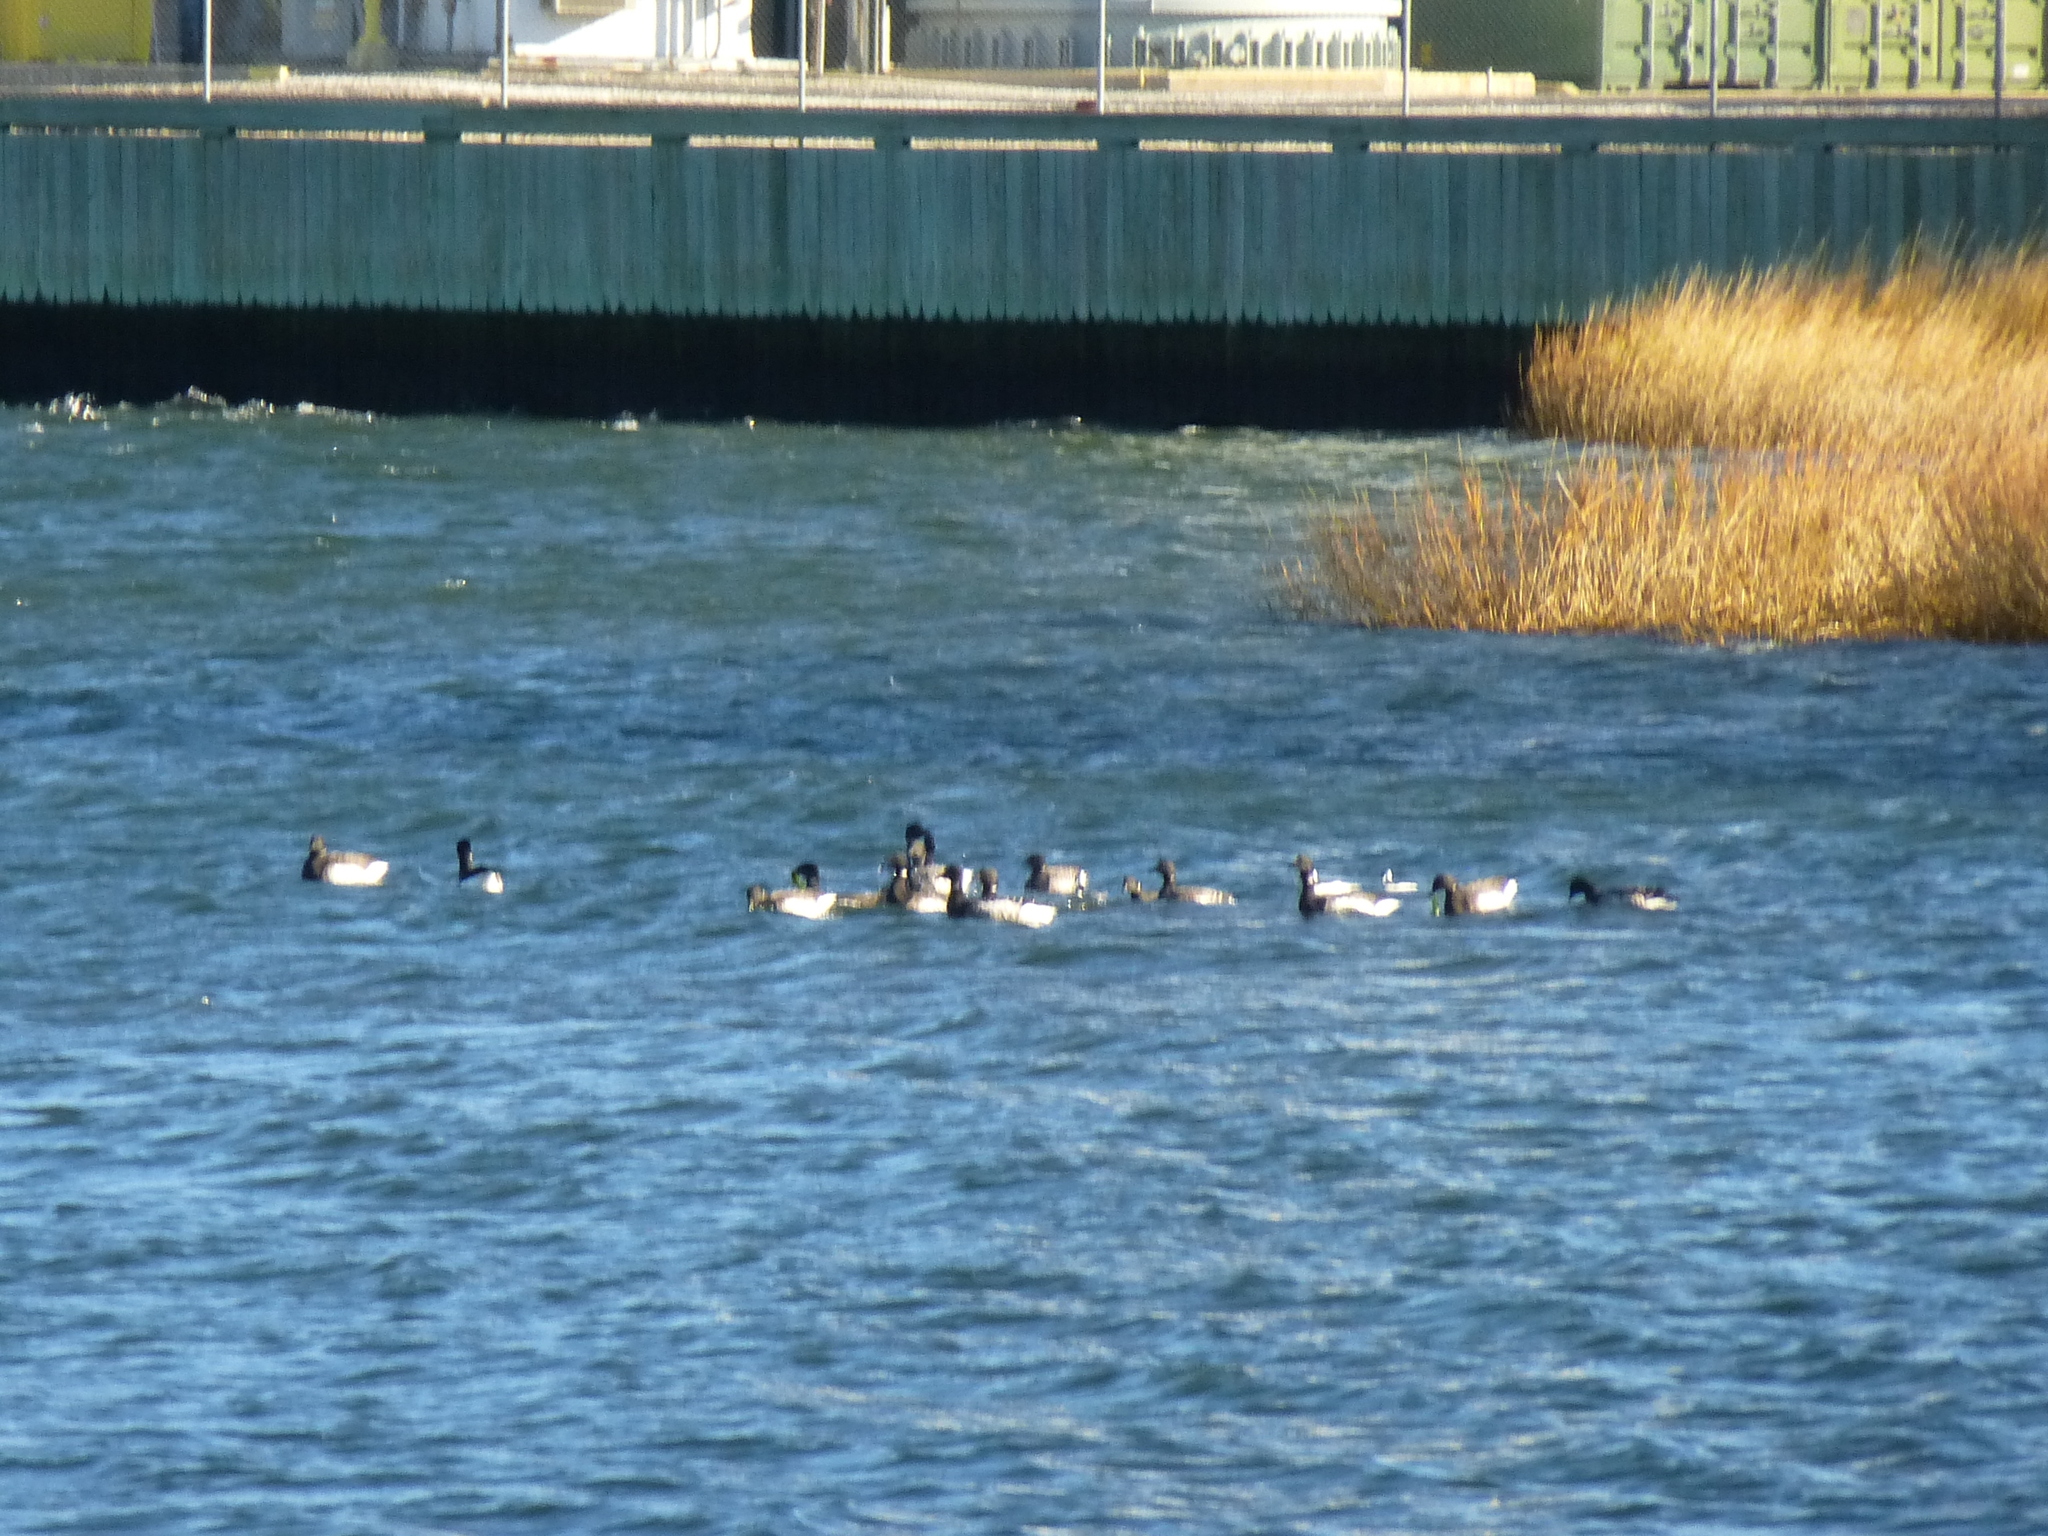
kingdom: Animalia
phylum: Chordata
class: Aves
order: Anseriformes
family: Anatidae
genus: Branta
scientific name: Branta bernicla
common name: Brant goose
